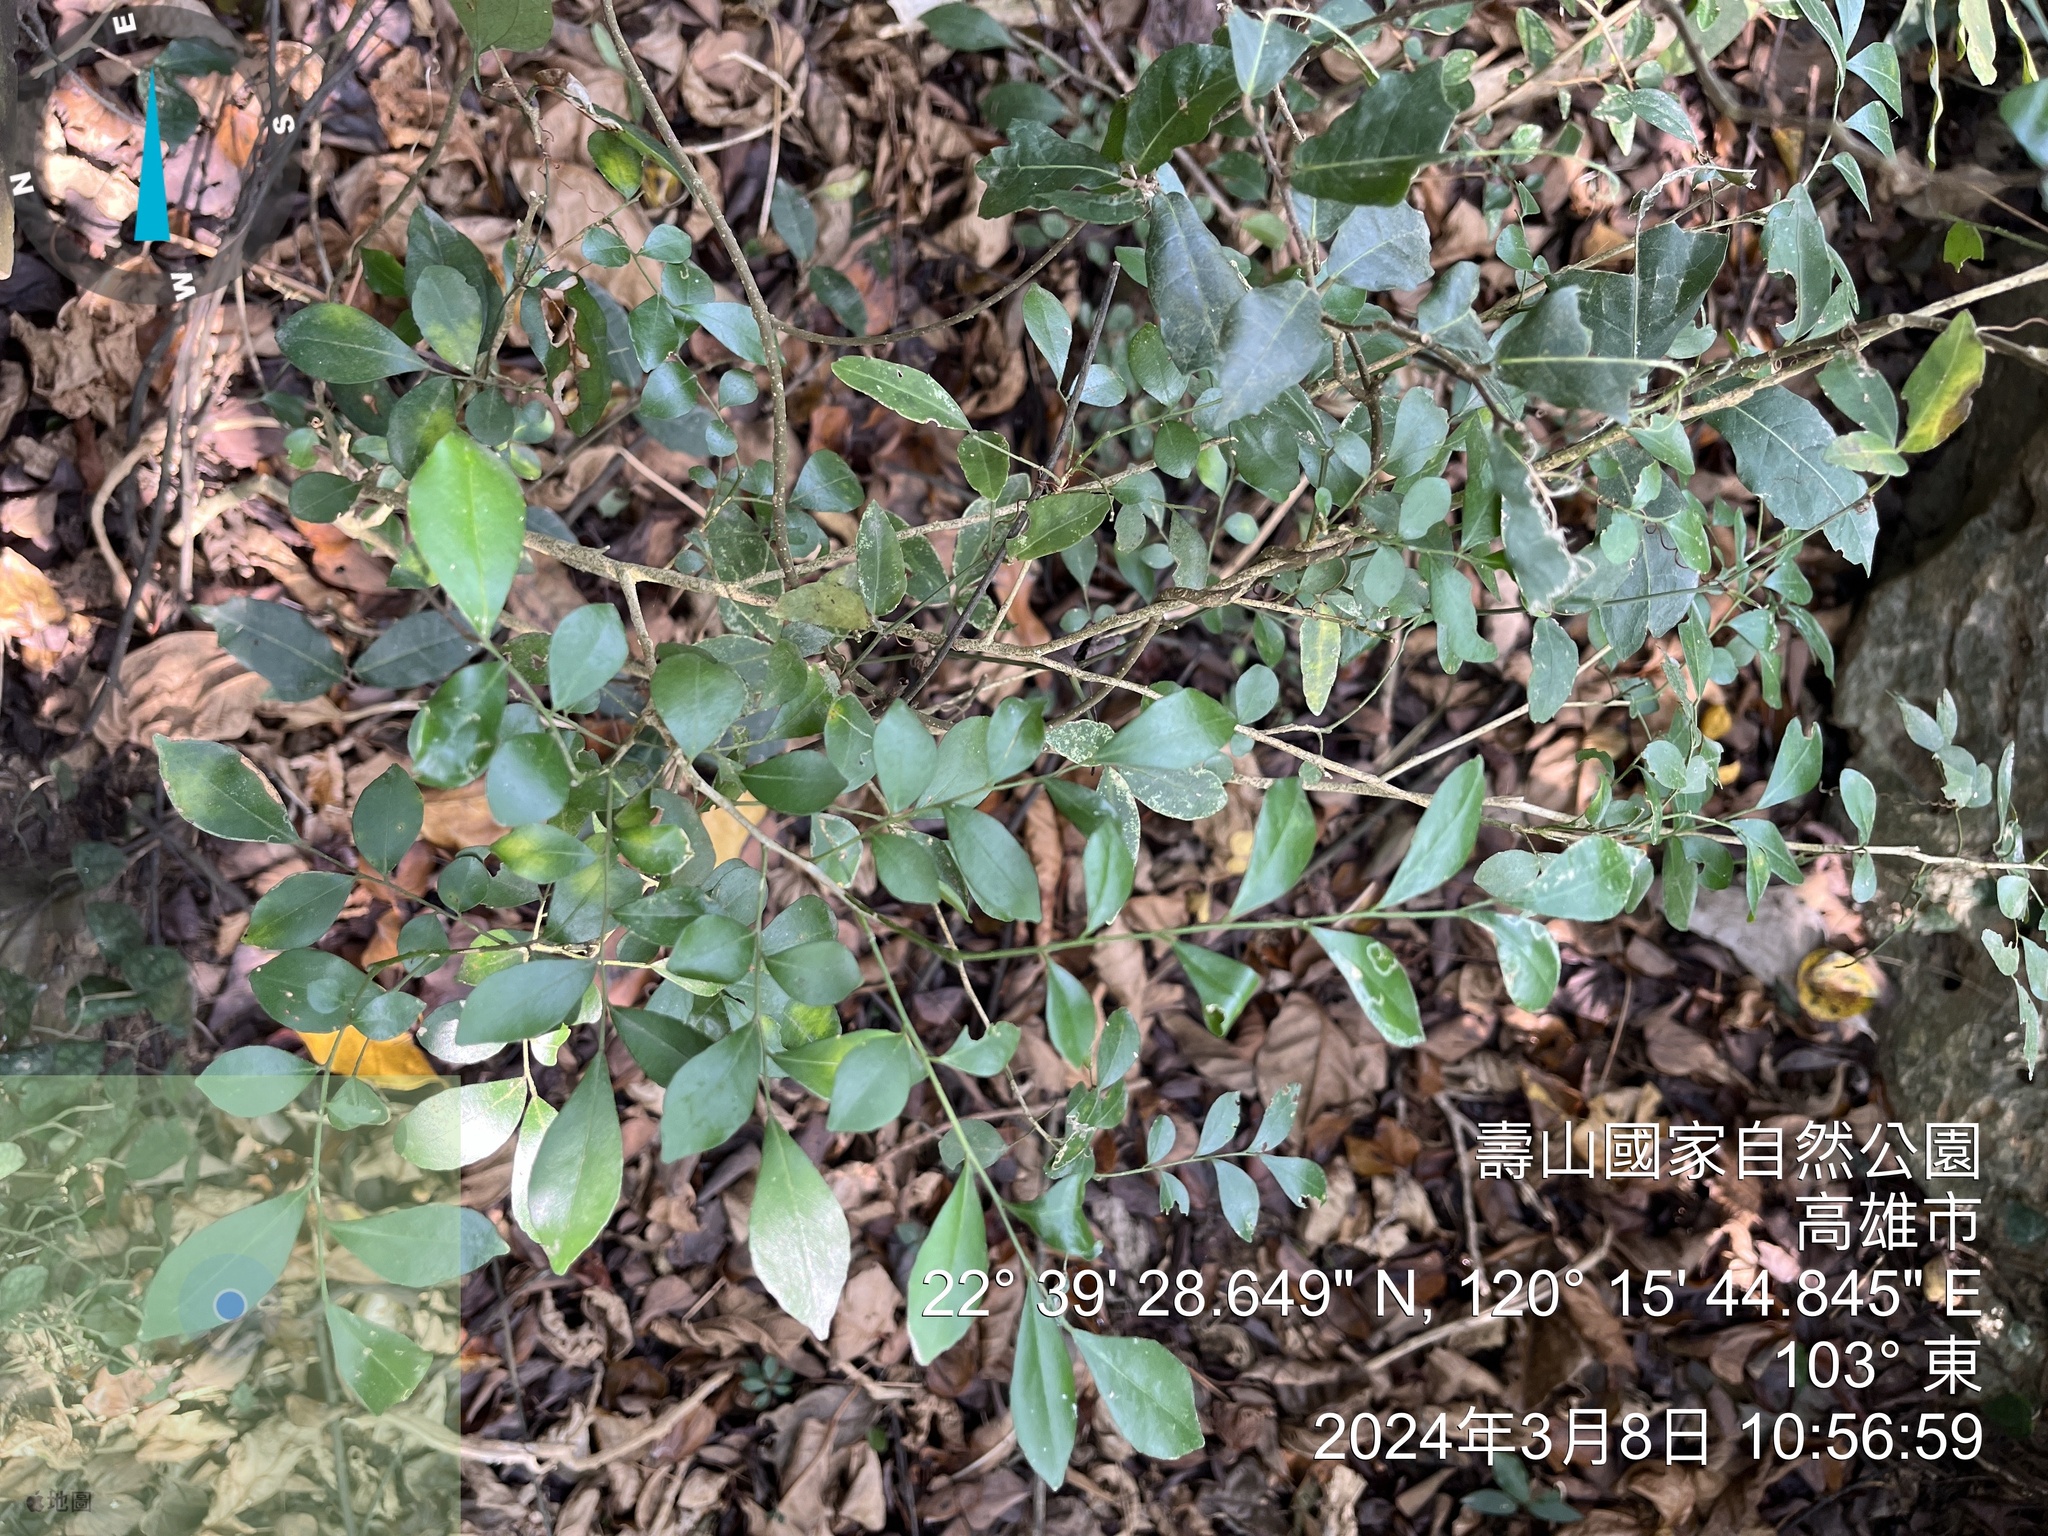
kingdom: Plantae
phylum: Tracheophyta
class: Magnoliopsida
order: Sapindales
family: Rutaceae
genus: Murraya
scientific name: Murraya paniculata
